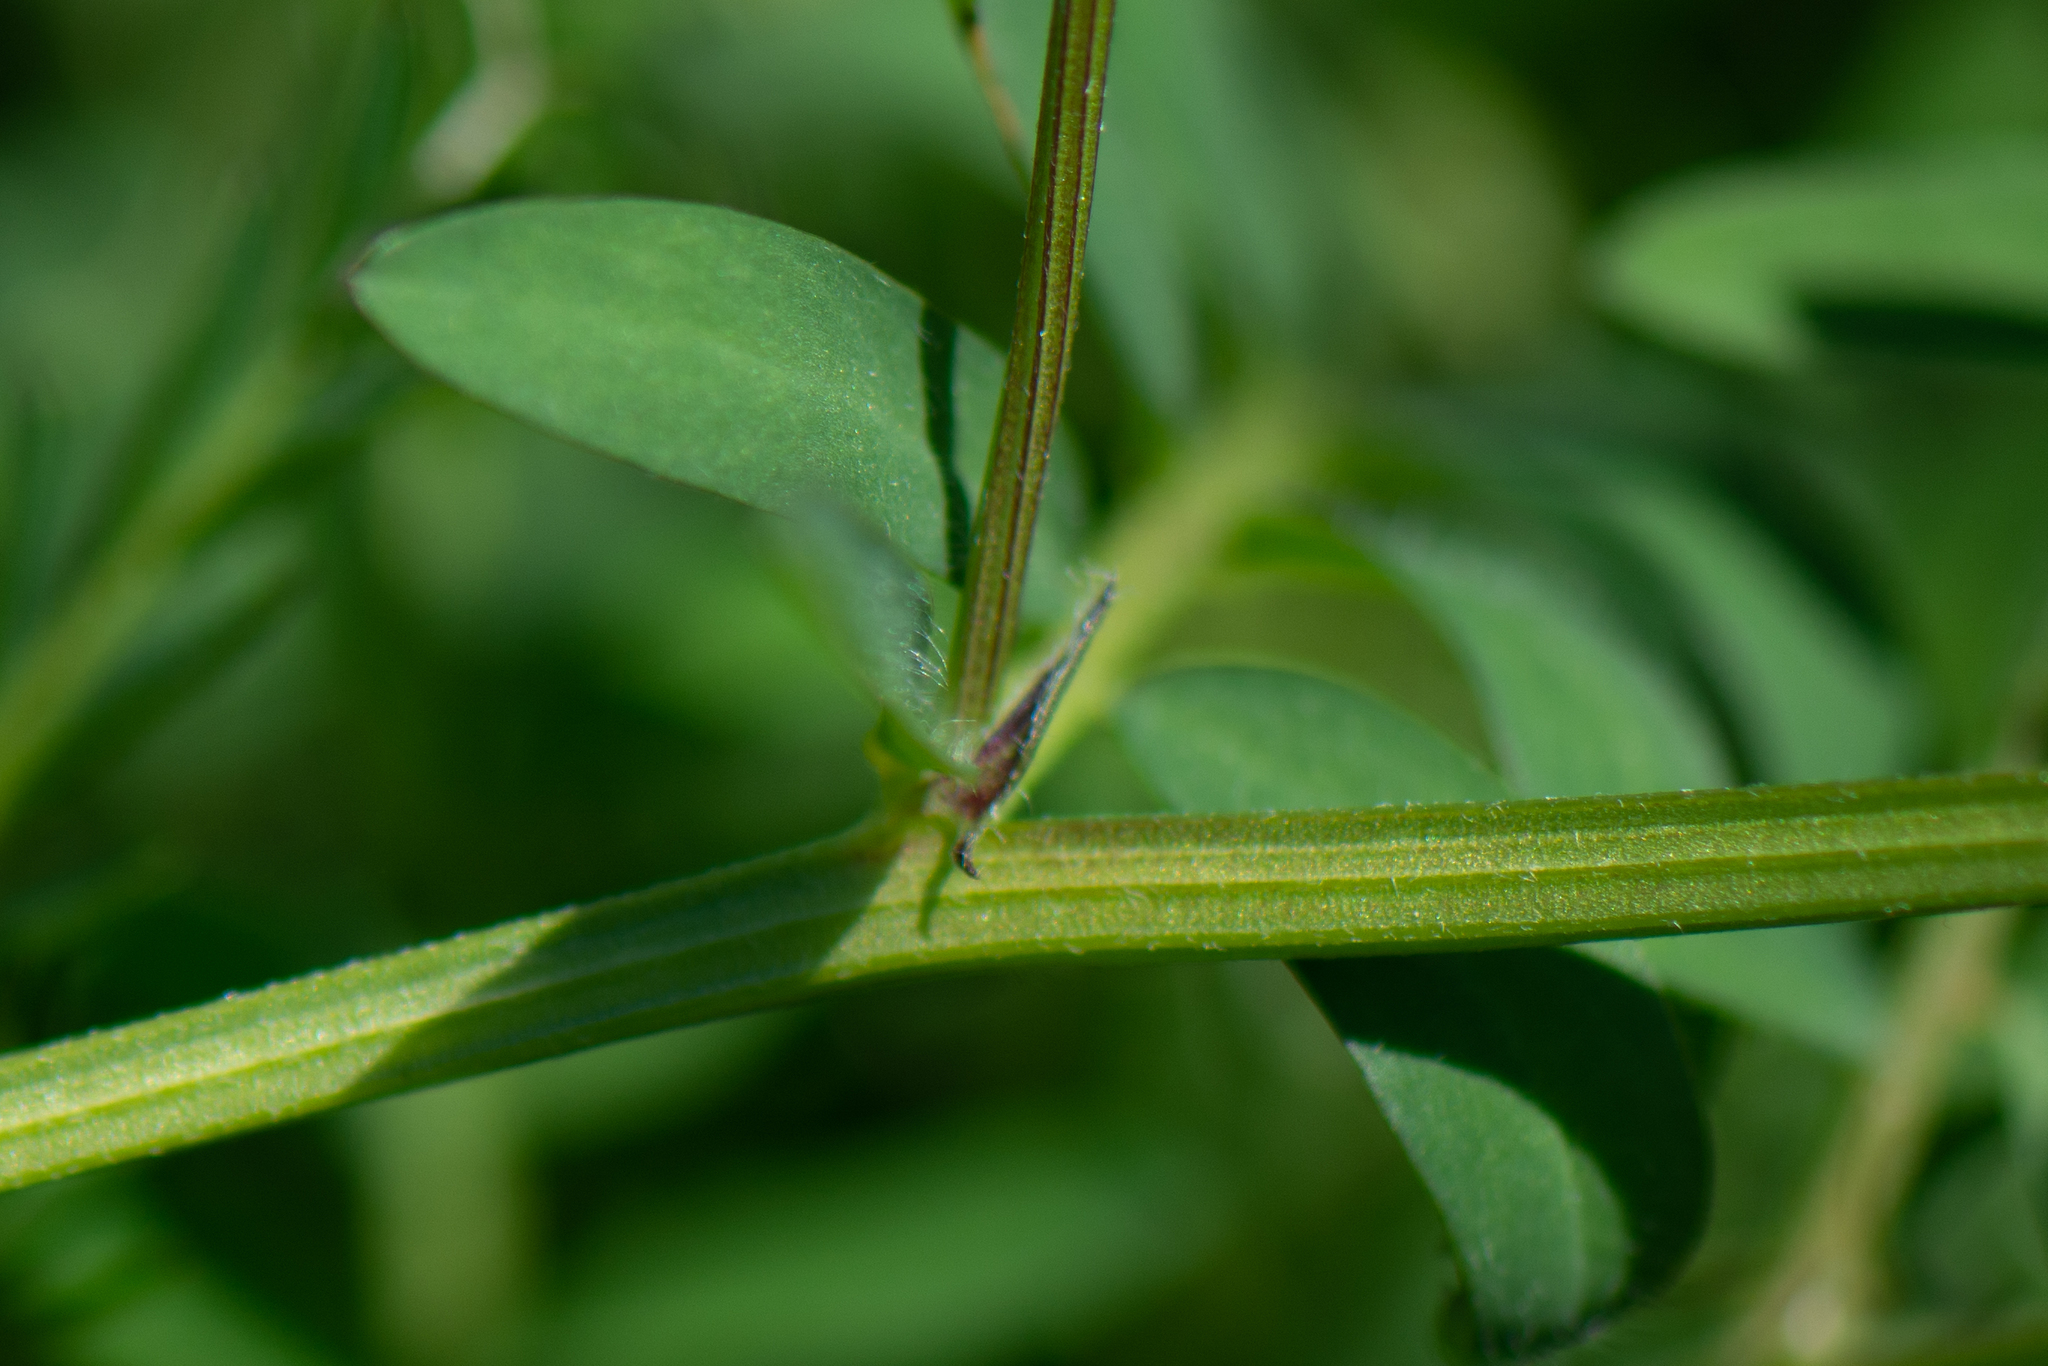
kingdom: Plantae
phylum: Tracheophyta
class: Magnoliopsida
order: Fabales
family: Fabaceae
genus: Vicia
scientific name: Vicia villosa
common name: Fodder vetch
